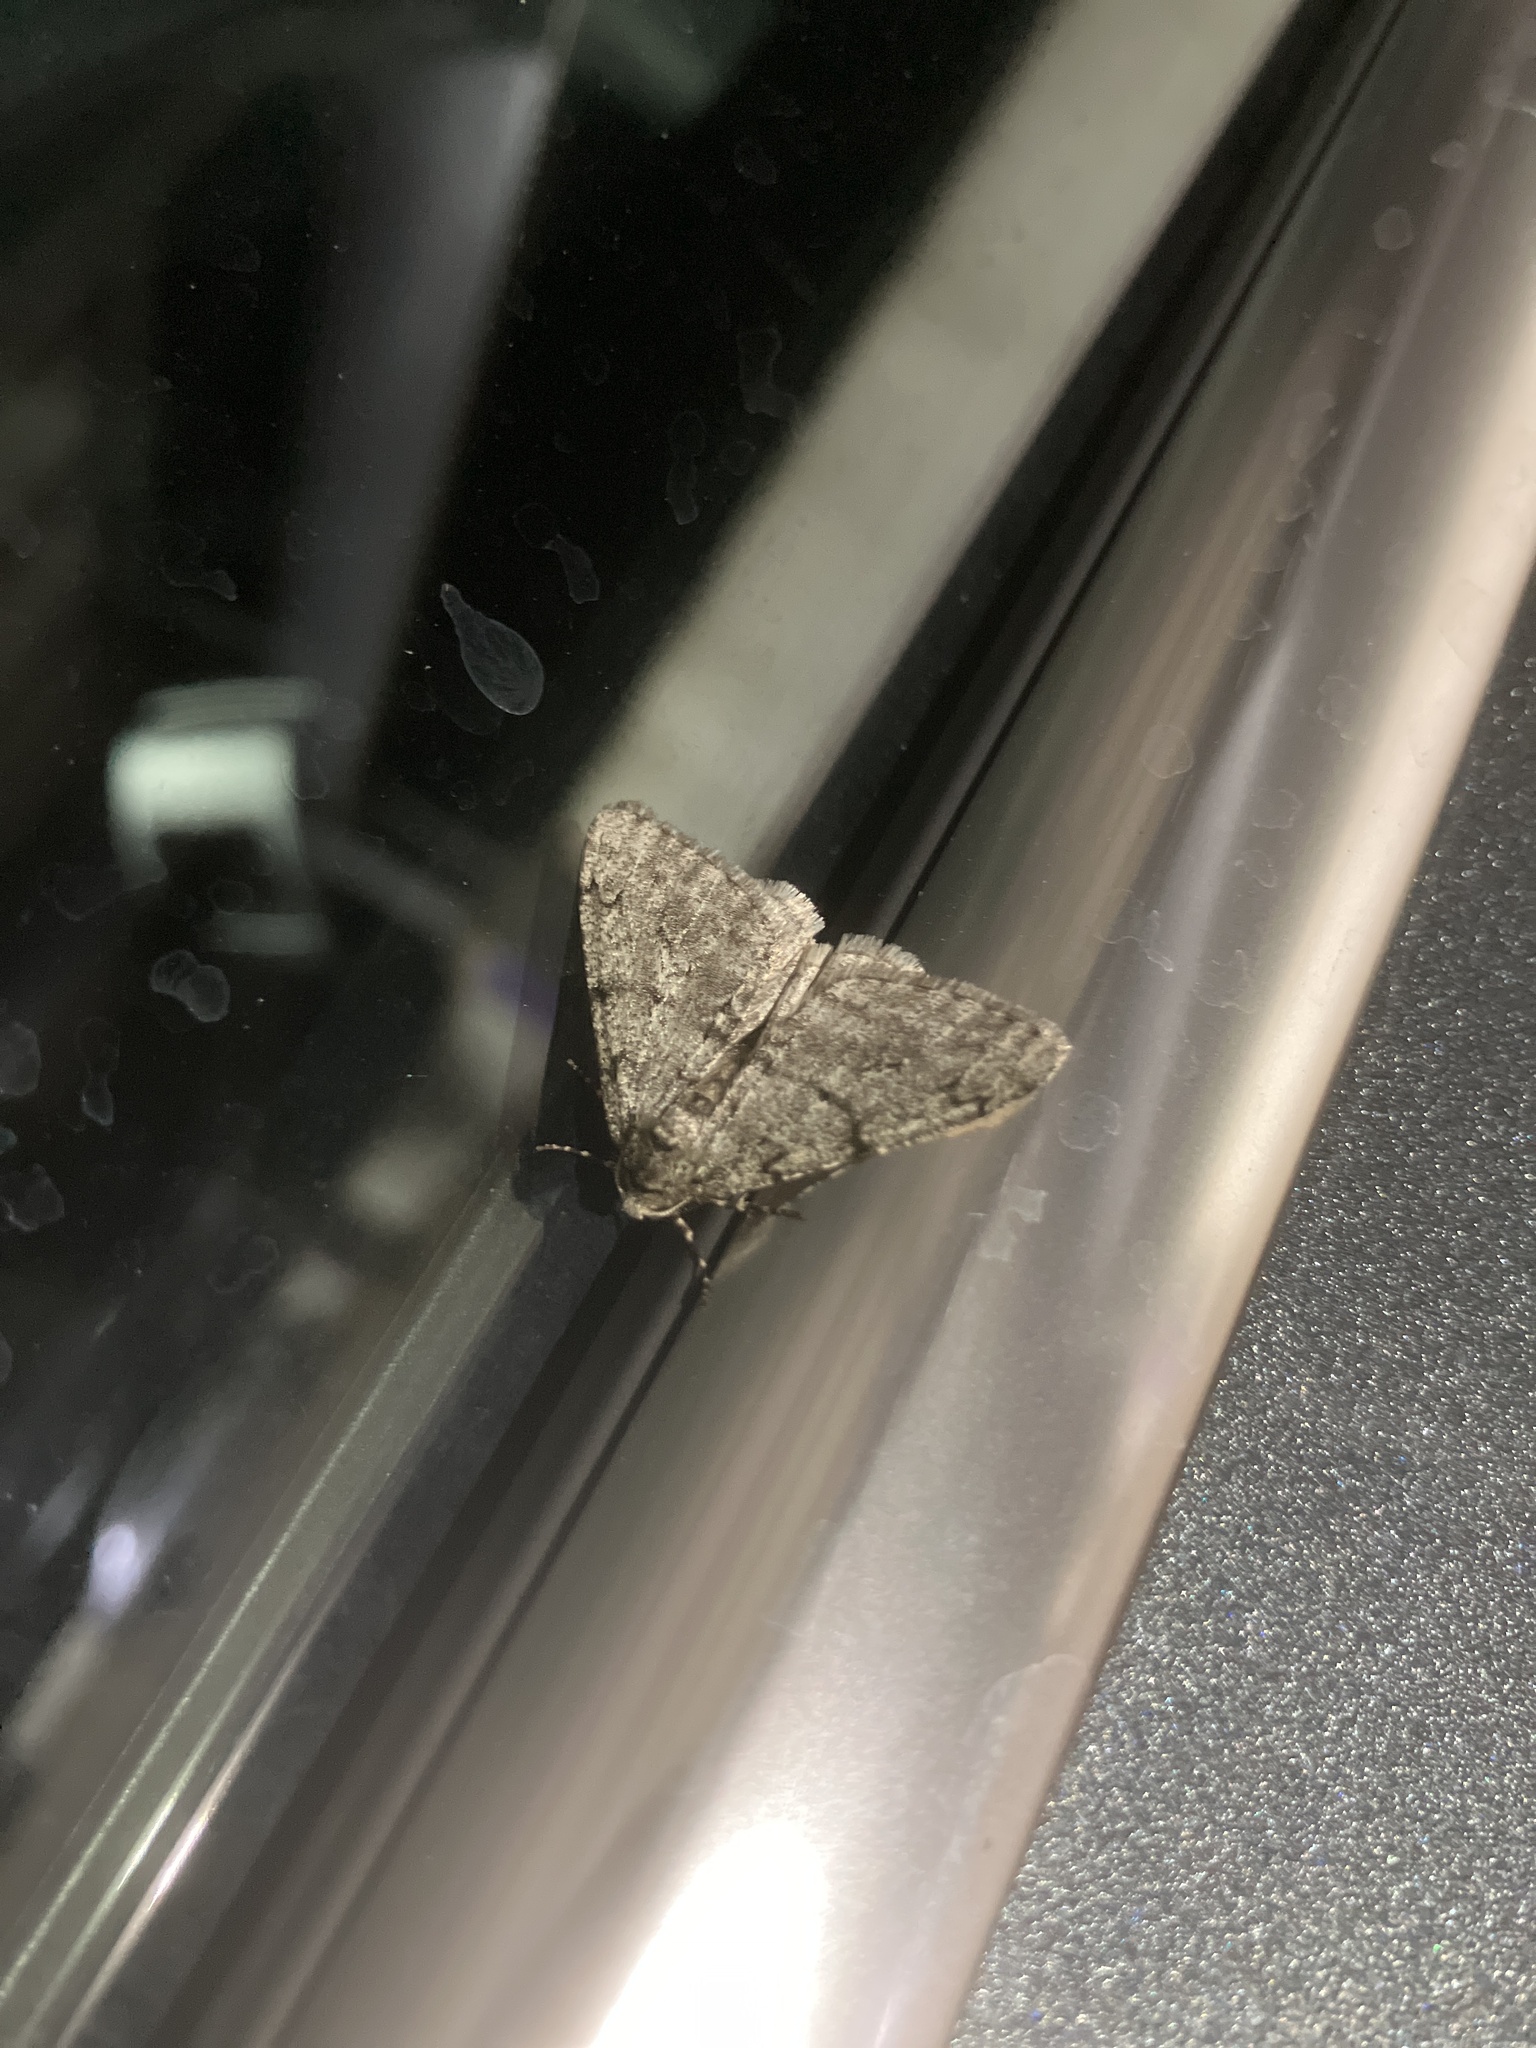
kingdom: Animalia
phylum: Arthropoda
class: Insecta
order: Lepidoptera
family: Geometridae
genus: Phigalia
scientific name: Phigalia strigataria
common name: Small phigalia
